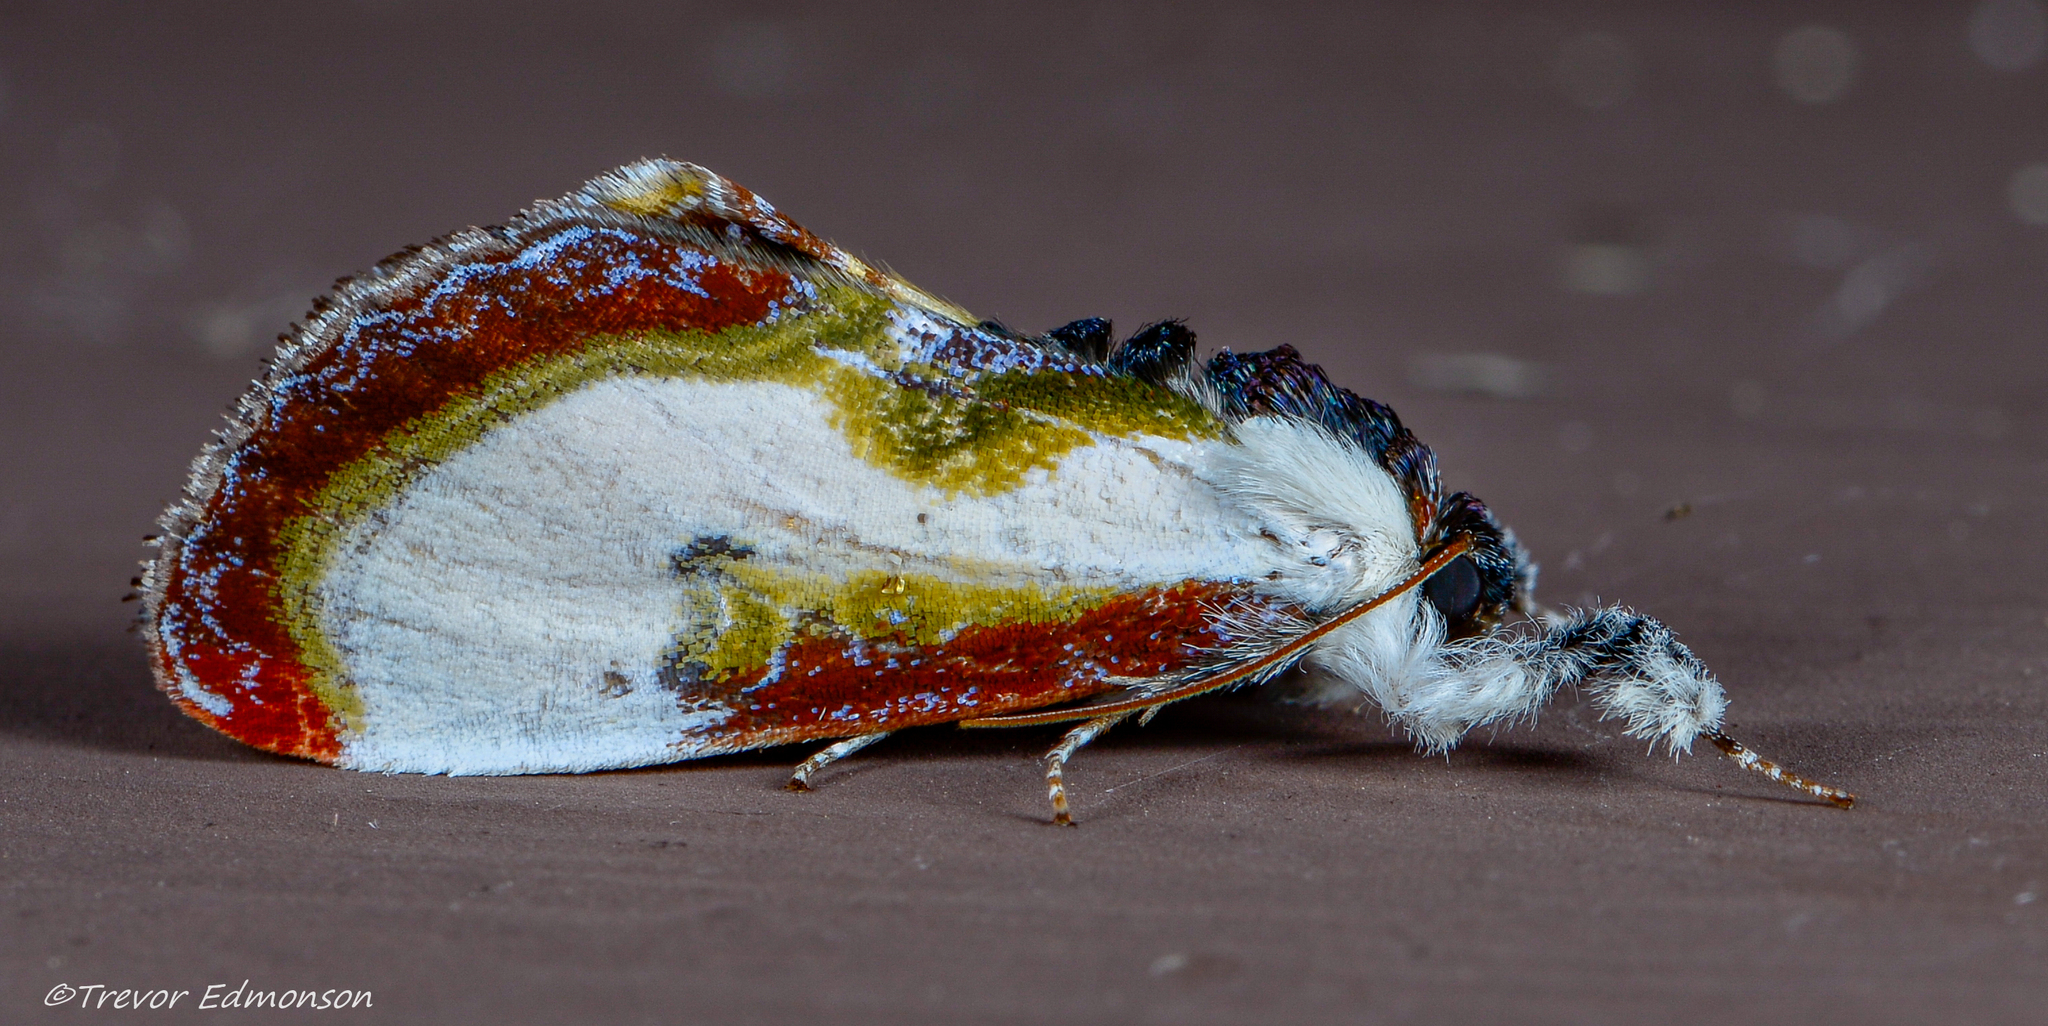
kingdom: Animalia
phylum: Arthropoda
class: Insecta
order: Lepidoptera
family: Noctuidae
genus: Eudryas
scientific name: Eudryas grata
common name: Beautiful wood-nymph
